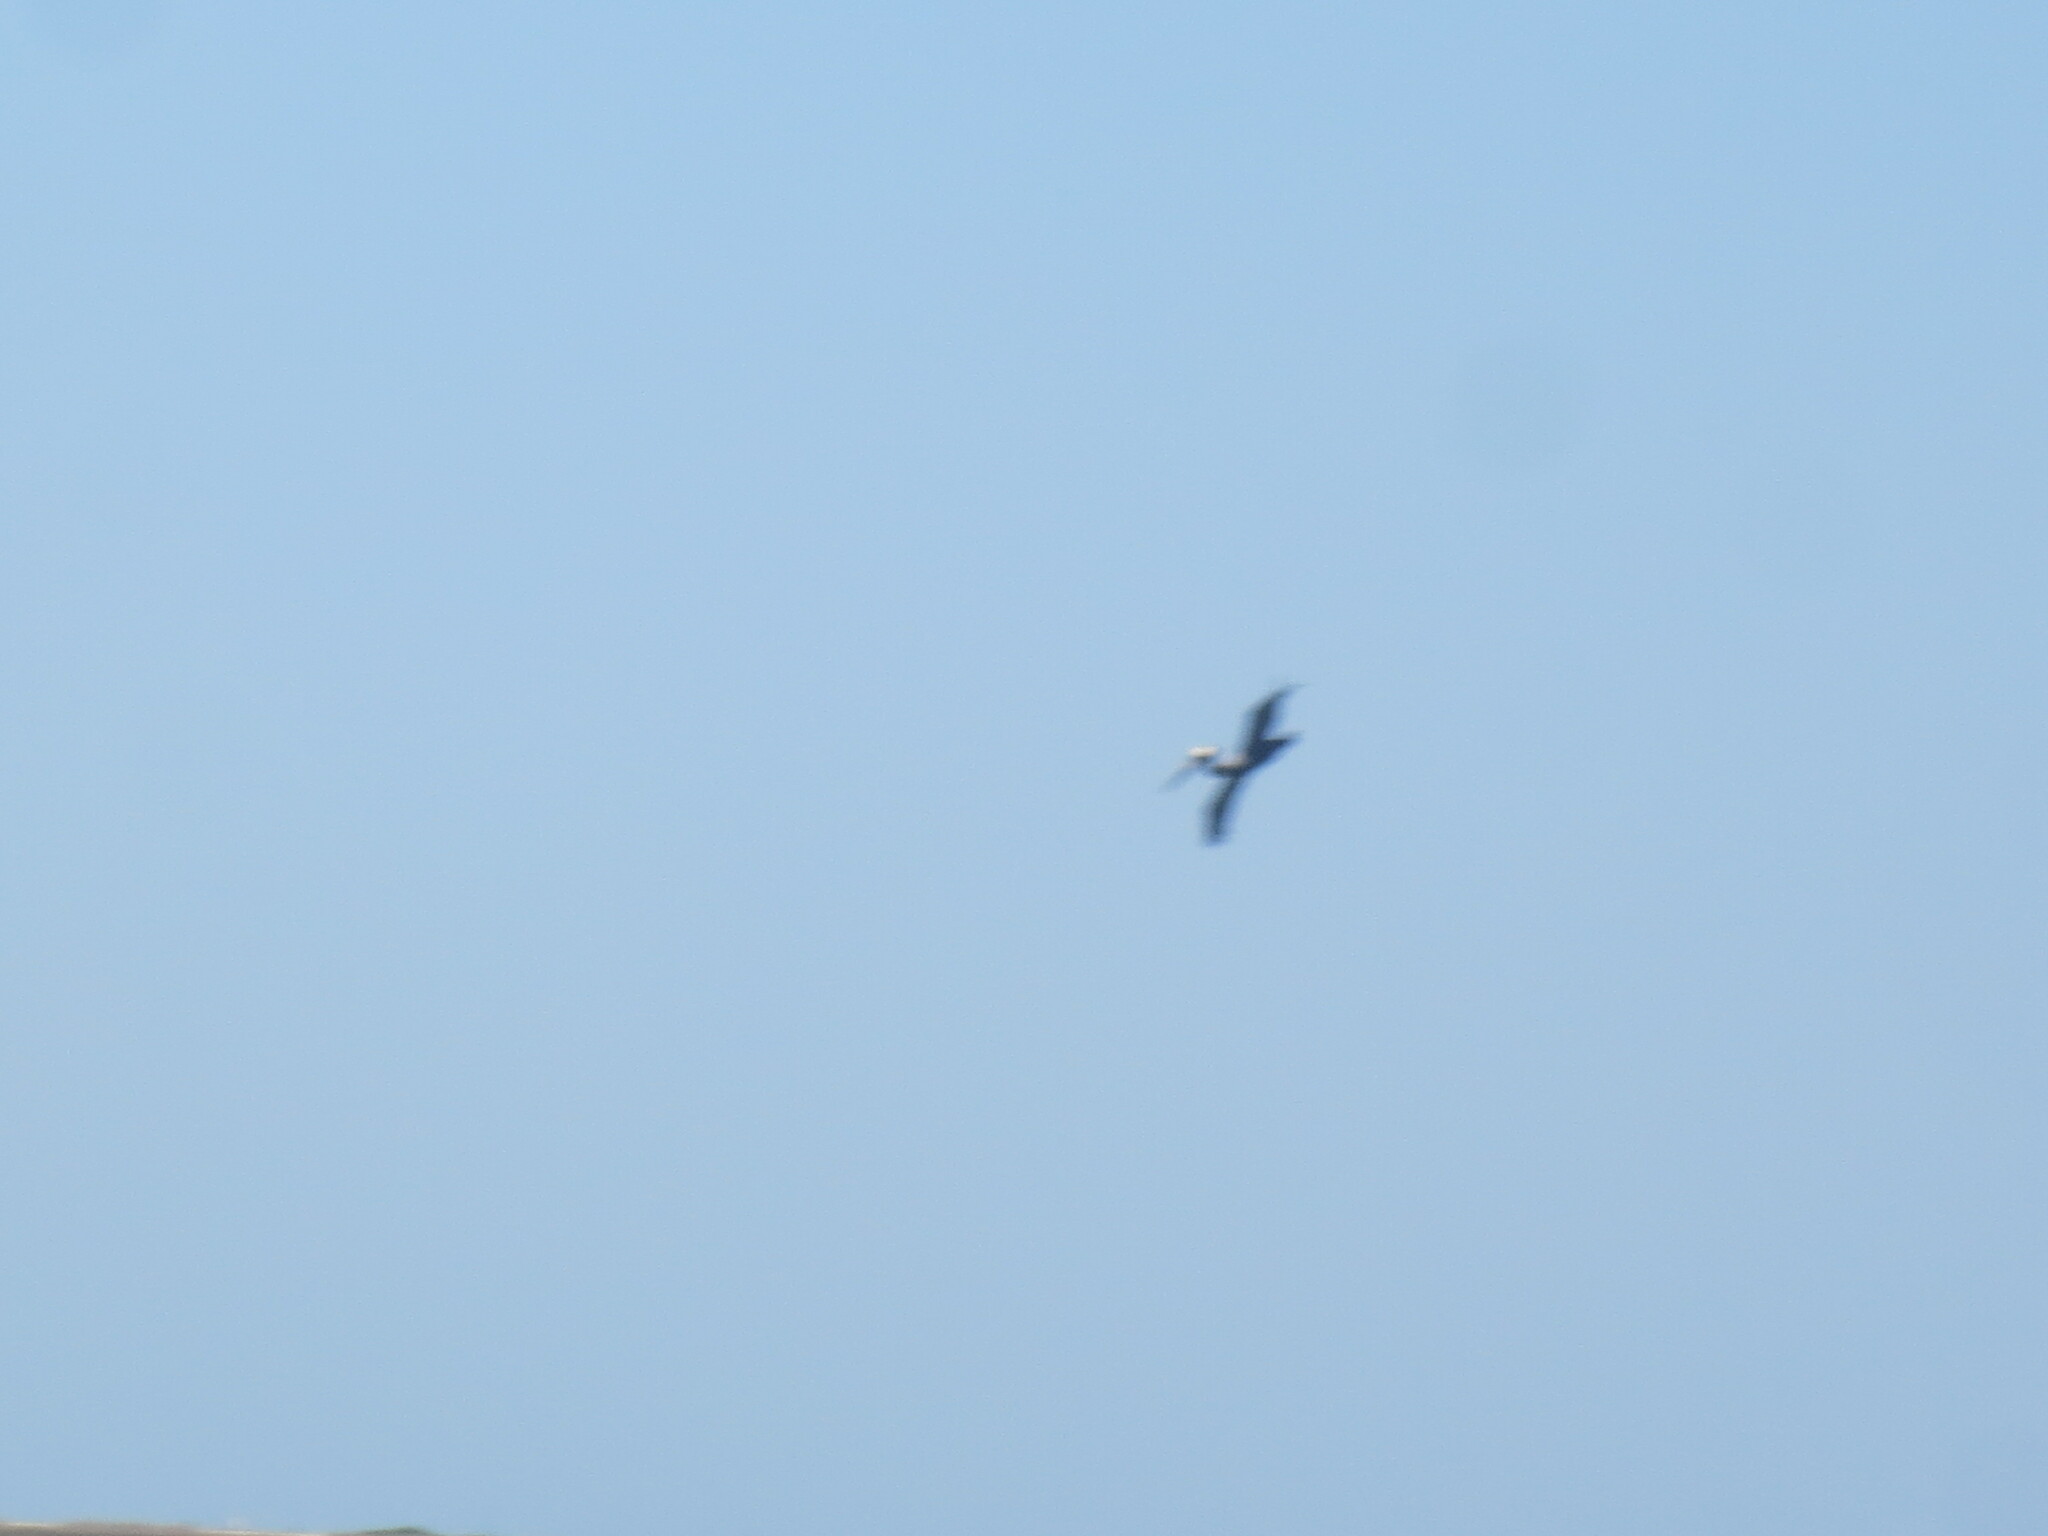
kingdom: Animalia
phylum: Chordata
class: Aves
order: Pelecaniformes
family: Pelecanidae
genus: Pelecanus
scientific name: Pelecanus occidentalis
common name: Brown pelican
